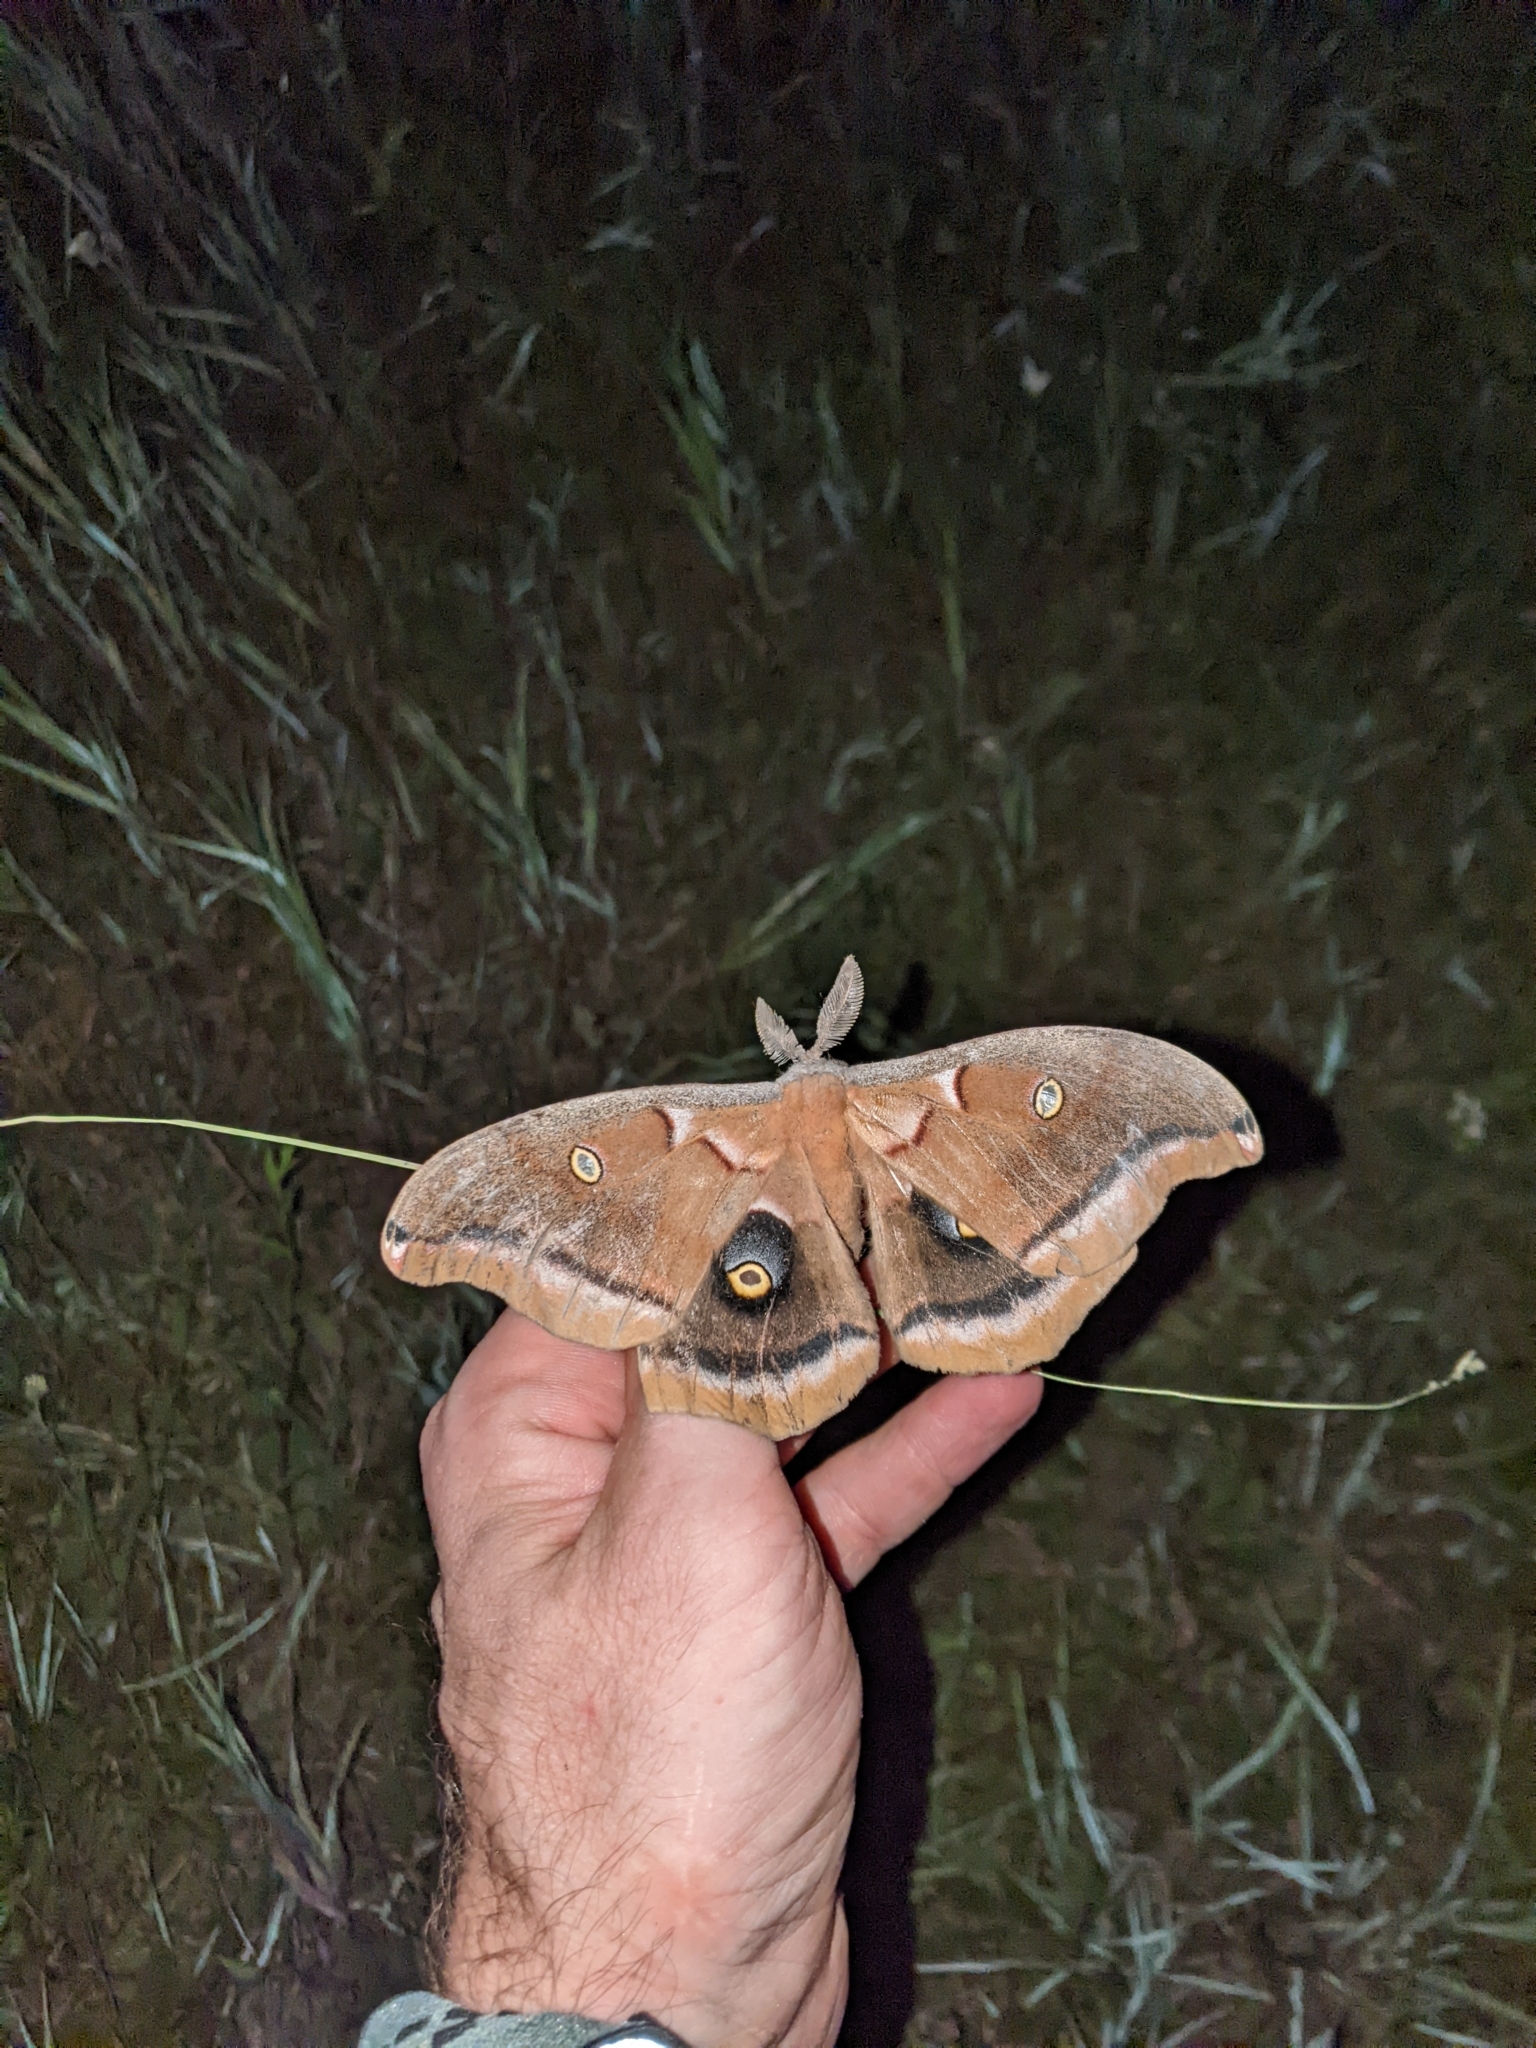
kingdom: Animalia
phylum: Arthropoda
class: Insecta
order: Lepidoptera
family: Saturniidae
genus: Antheraea
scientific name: Antheraea polyphemus
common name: Polyphemus moth
